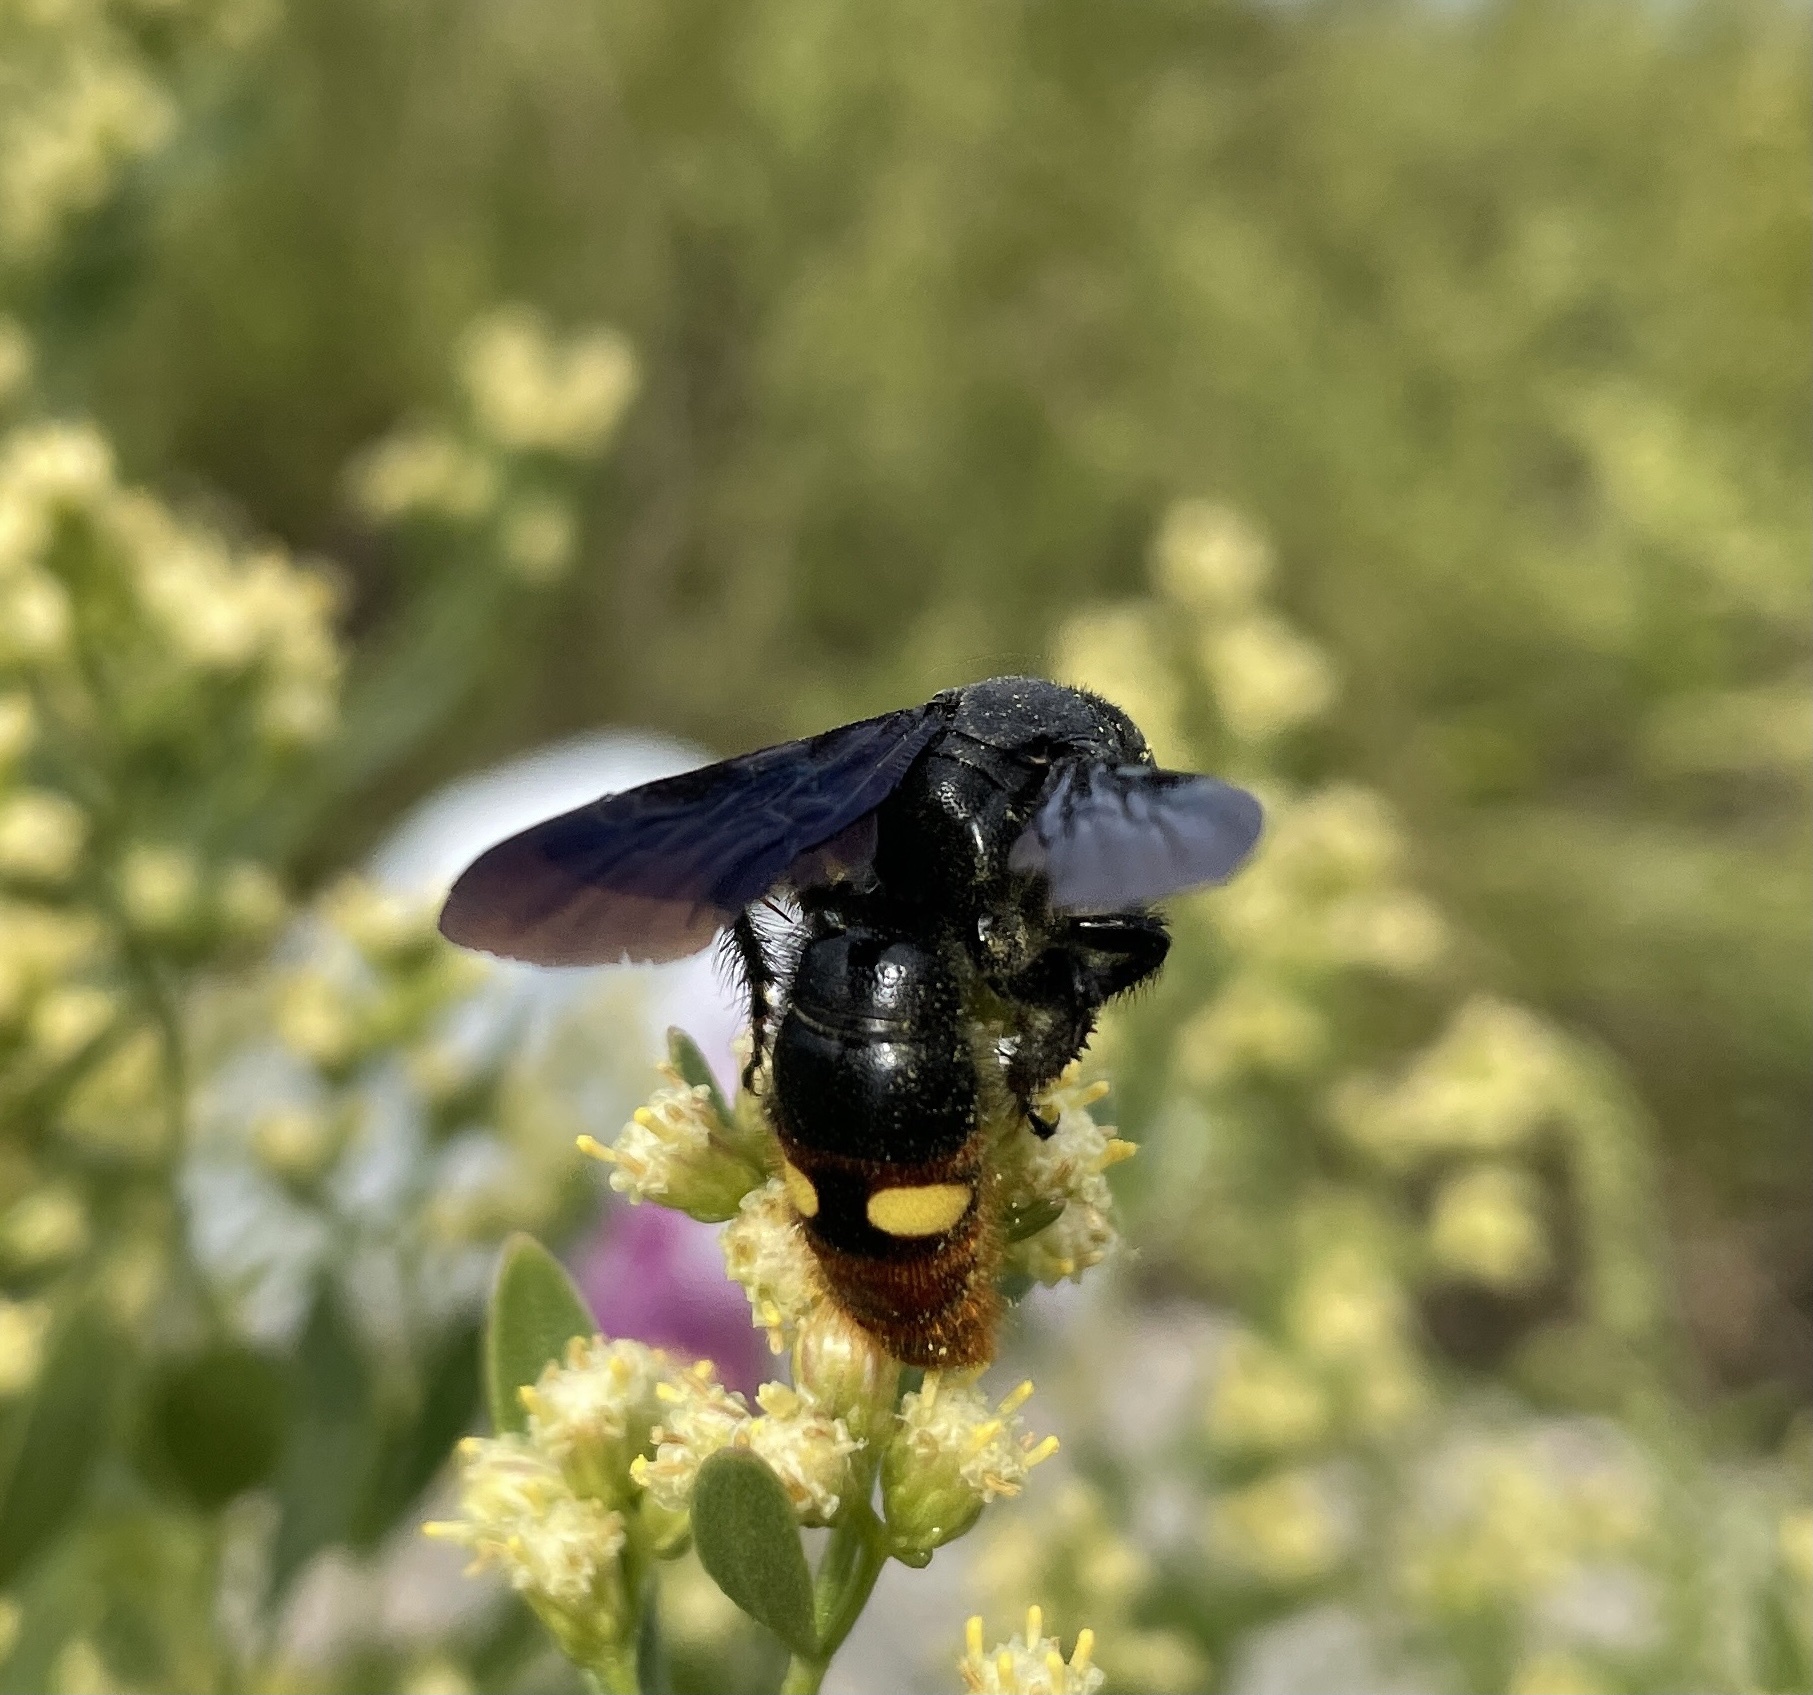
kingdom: Animalia
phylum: Arthropoda
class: Insecta
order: Hymenoptera
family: Scoliidae
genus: Scolia
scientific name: Scolia dubia
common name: Blue-winged scoliid wasp
